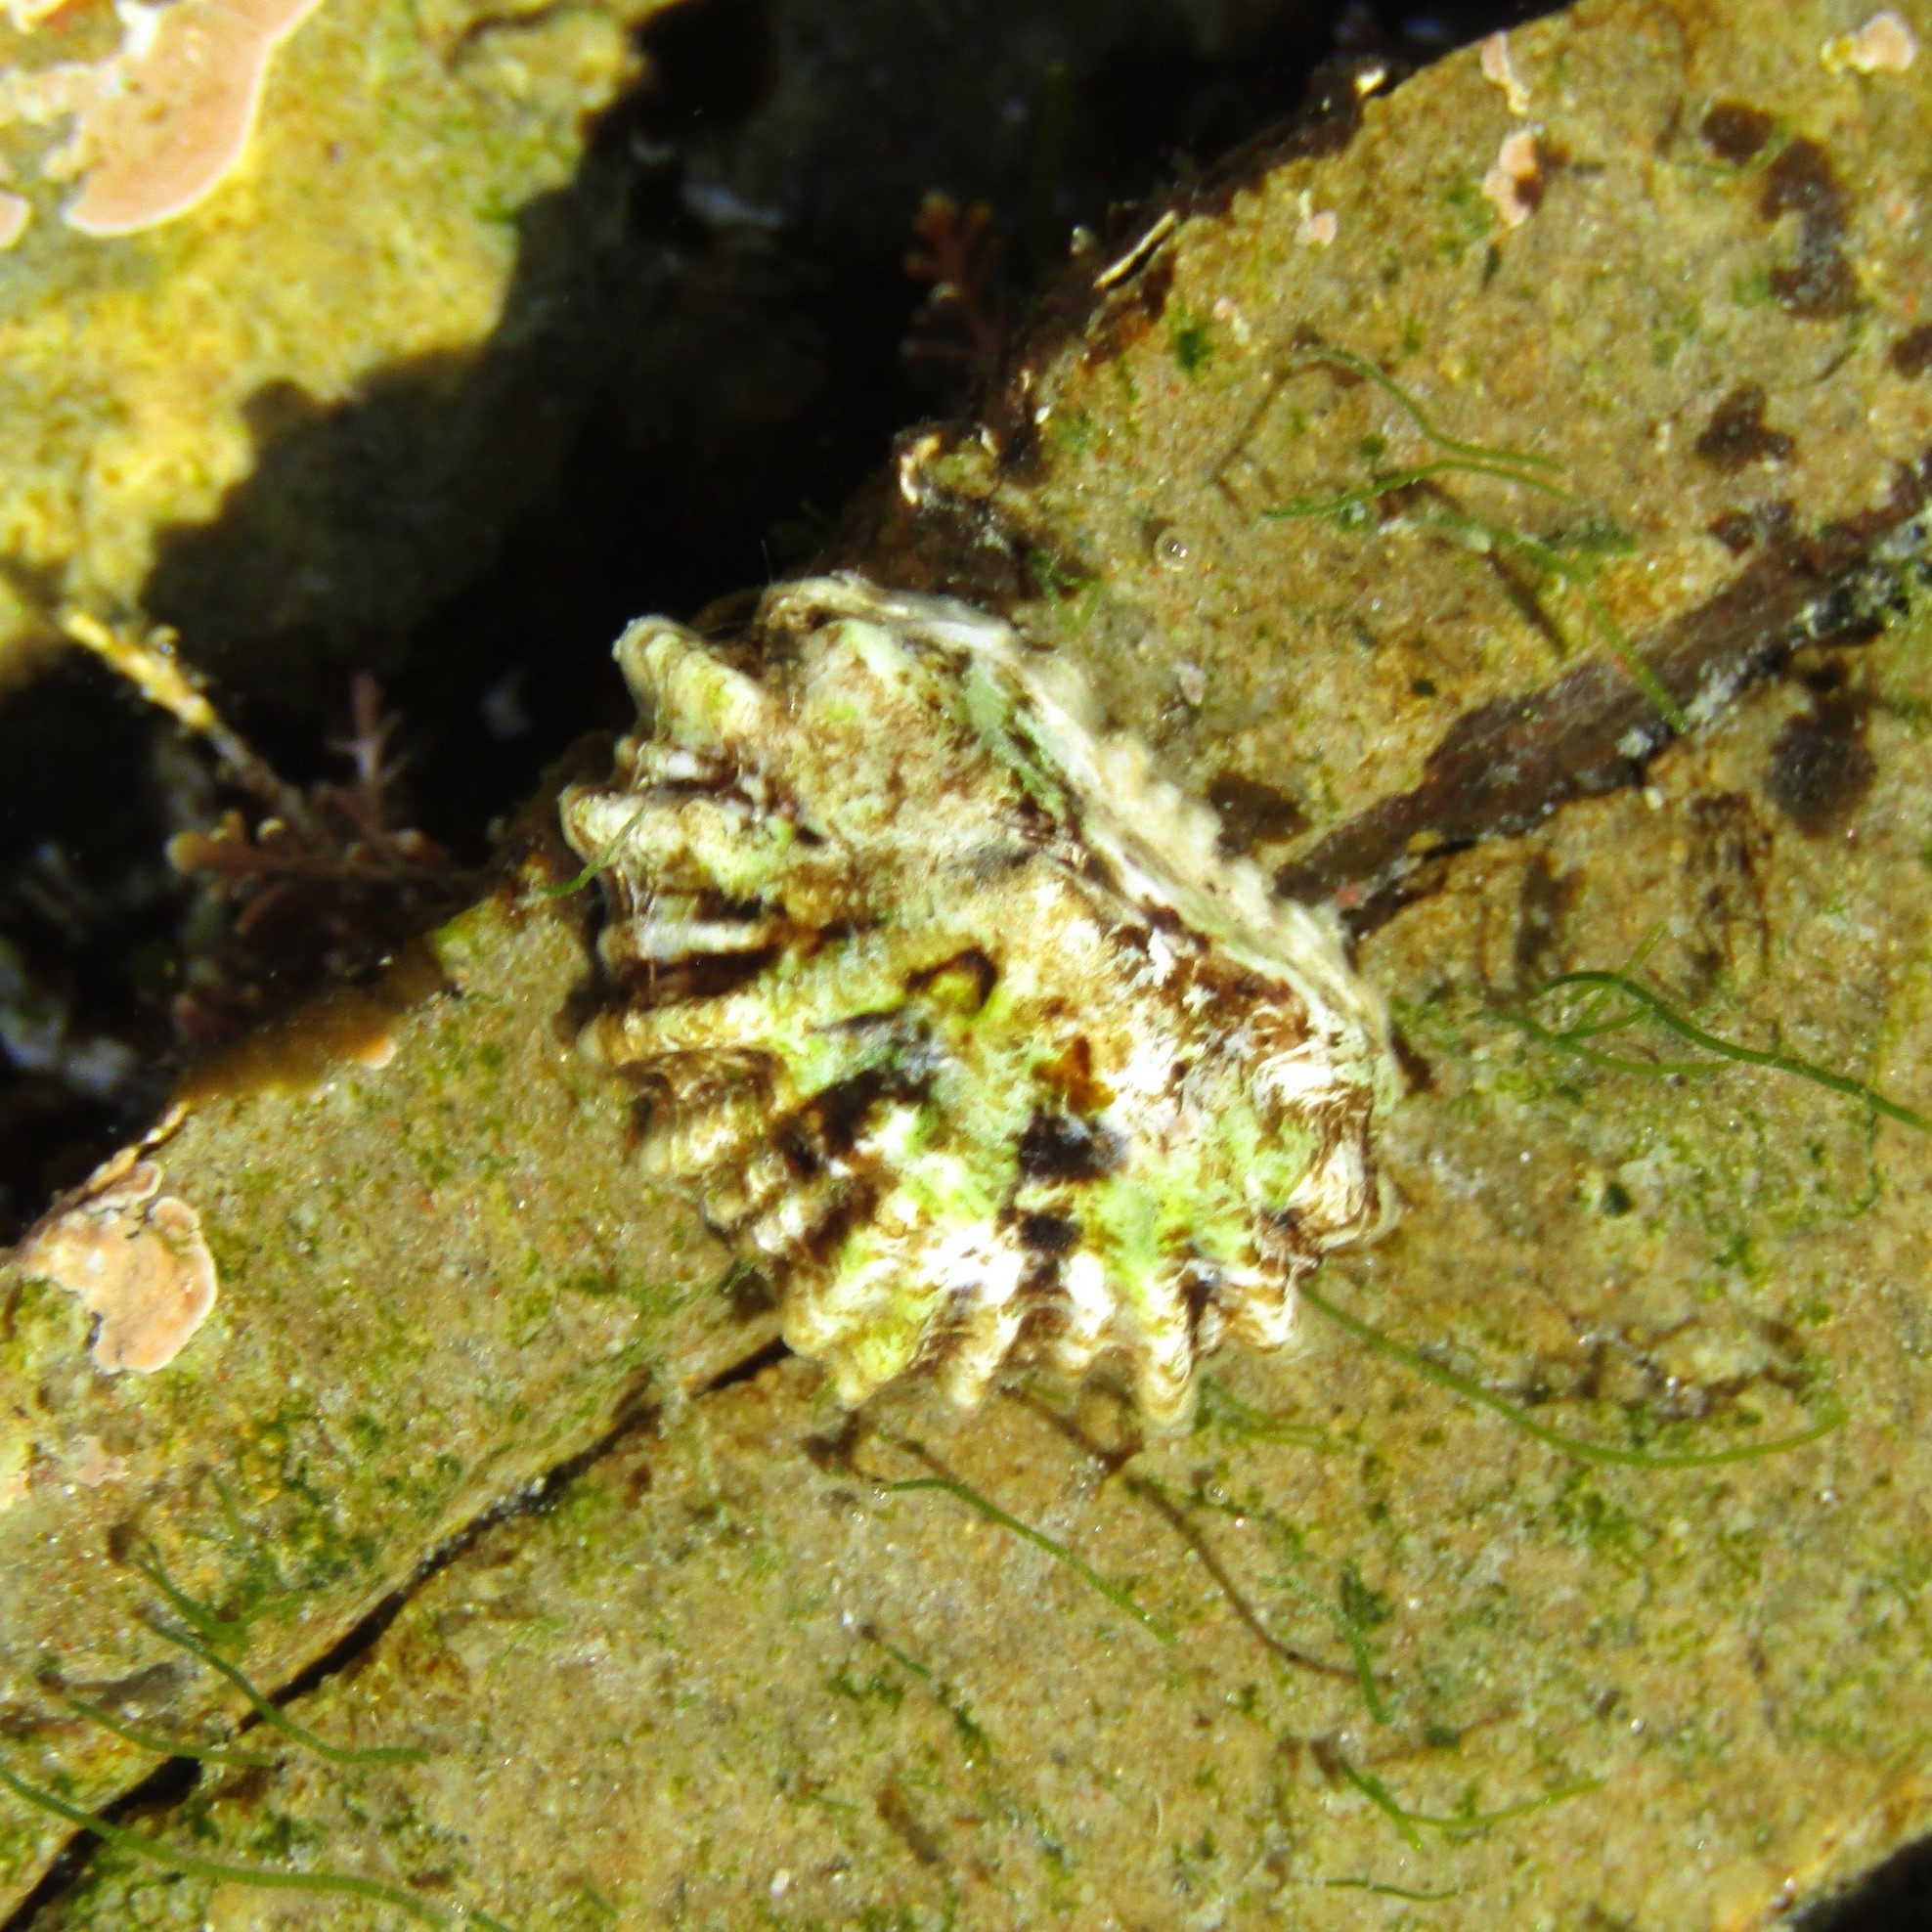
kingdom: Animalia
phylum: Mollusca
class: Gastropoda
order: Siphonariida
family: Siphonariidae
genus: Siphonaria
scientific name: Siphonaria australis
